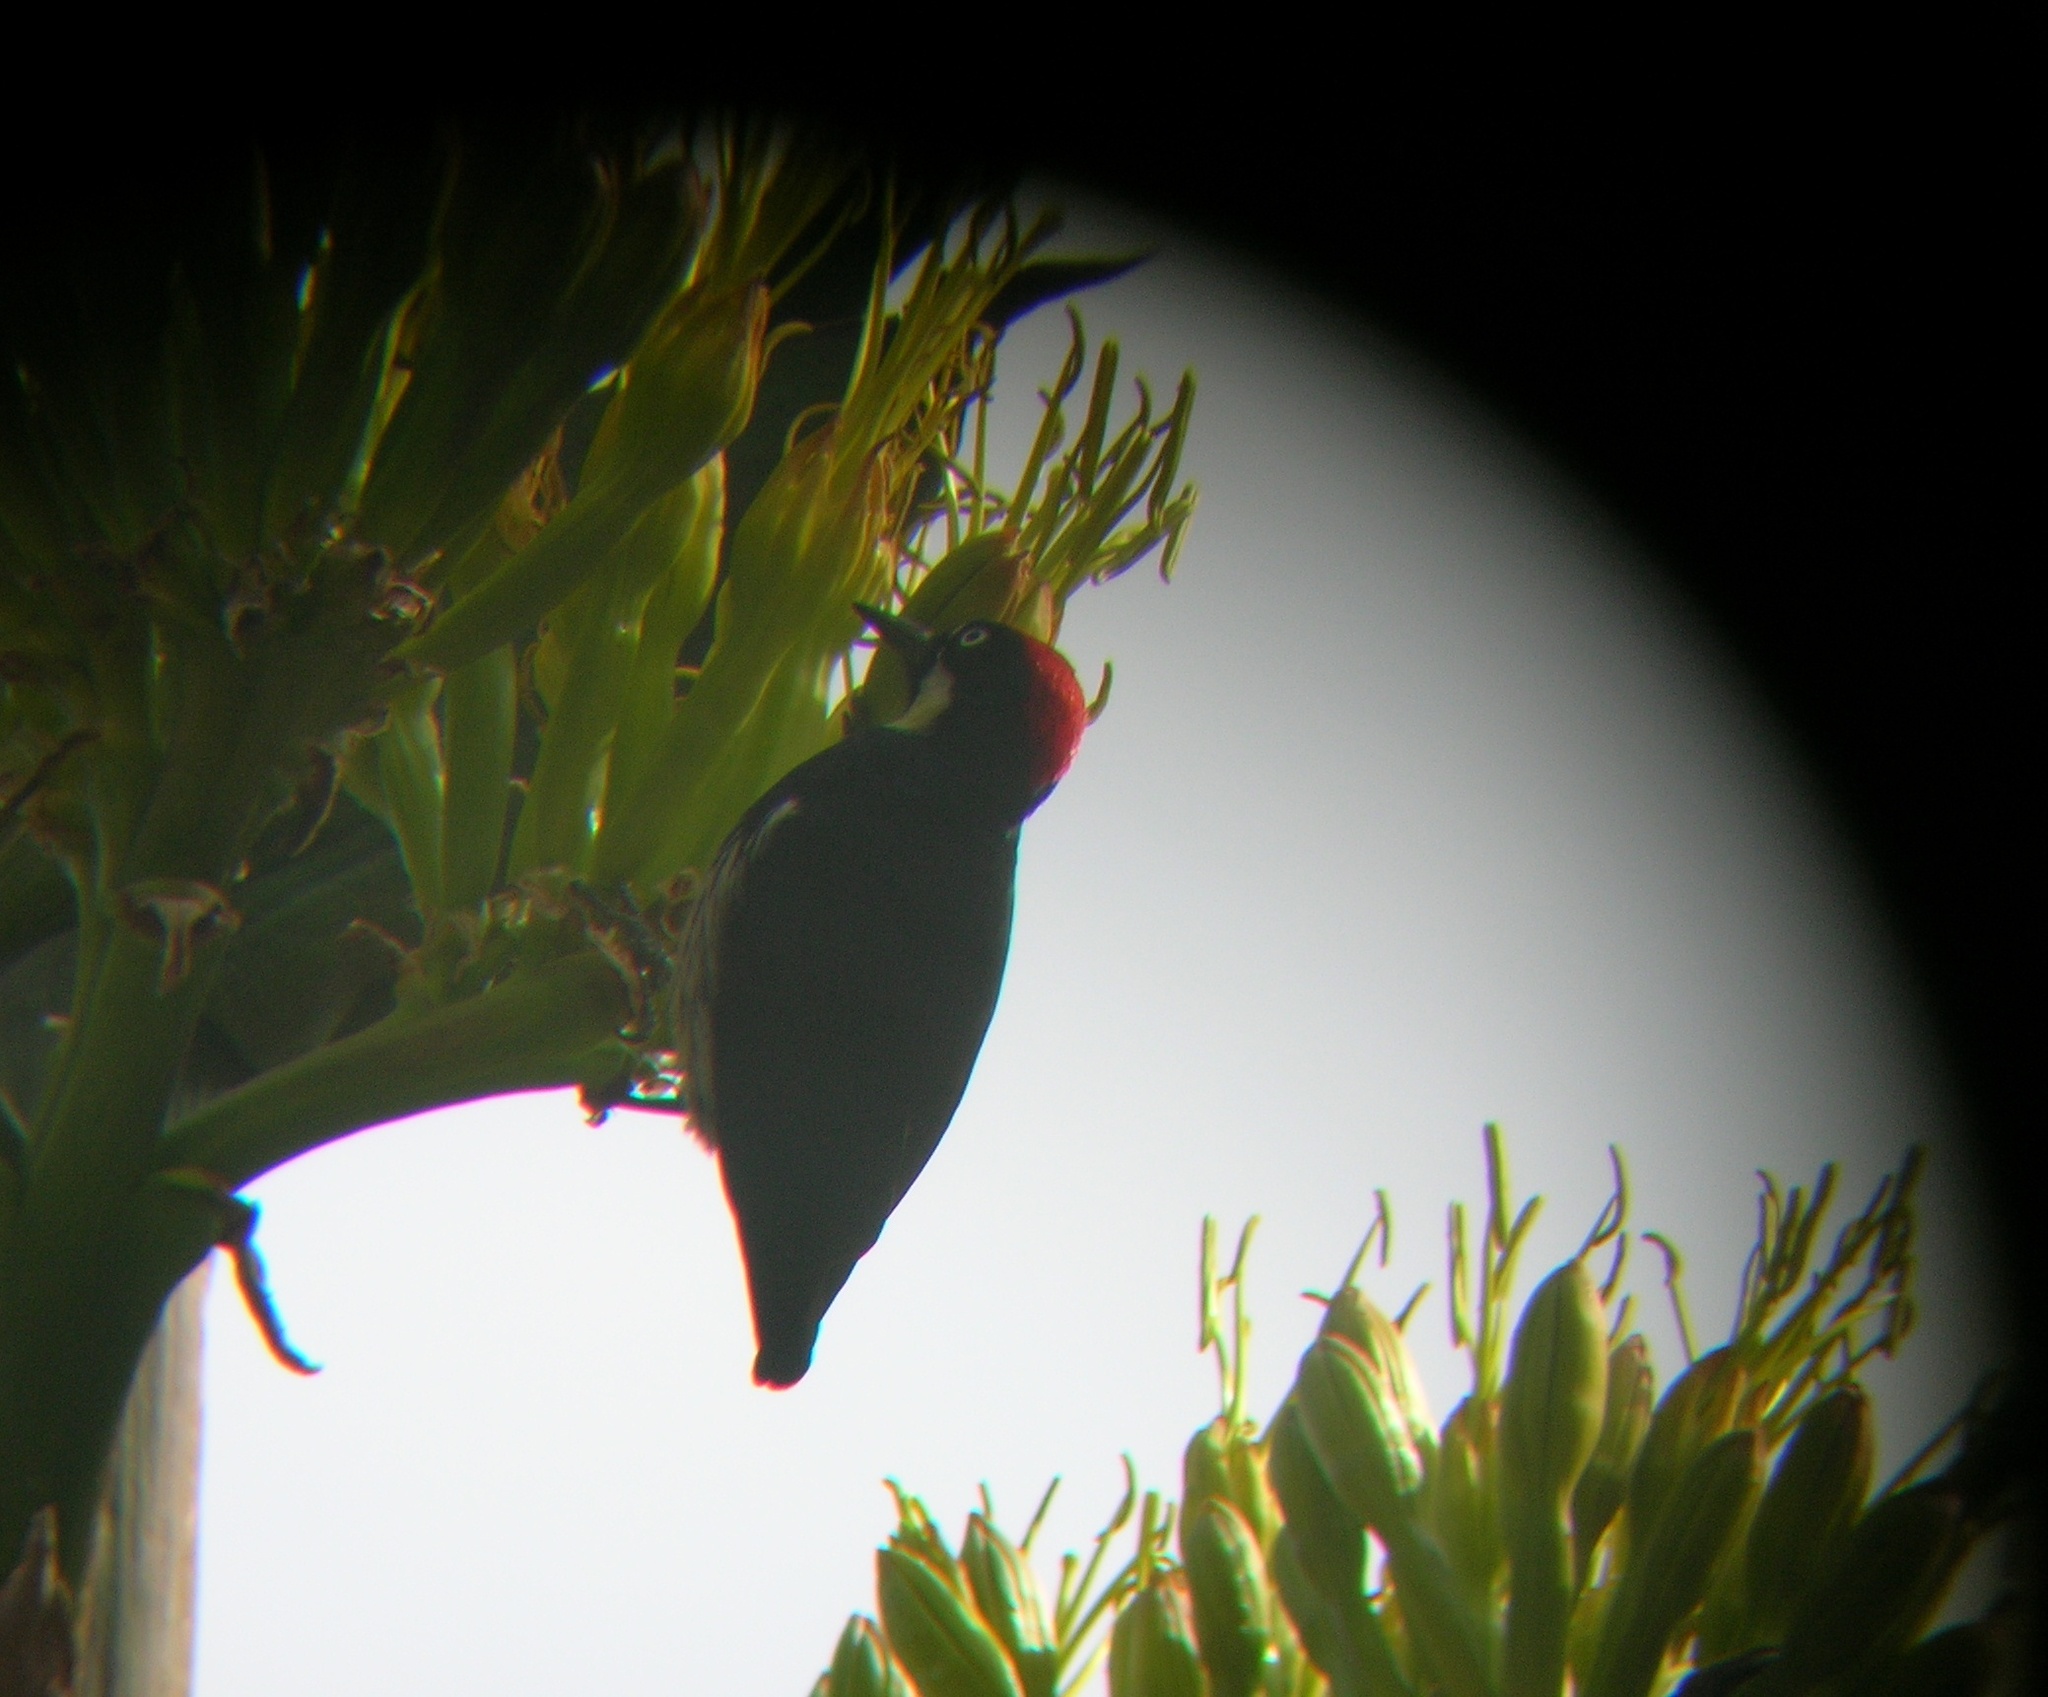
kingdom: Animalia
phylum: Chordata
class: Aves
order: Piciformes
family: Picidae
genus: Melanerpes
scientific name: Melanerpes formicivorus
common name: Acorn woodpecker
